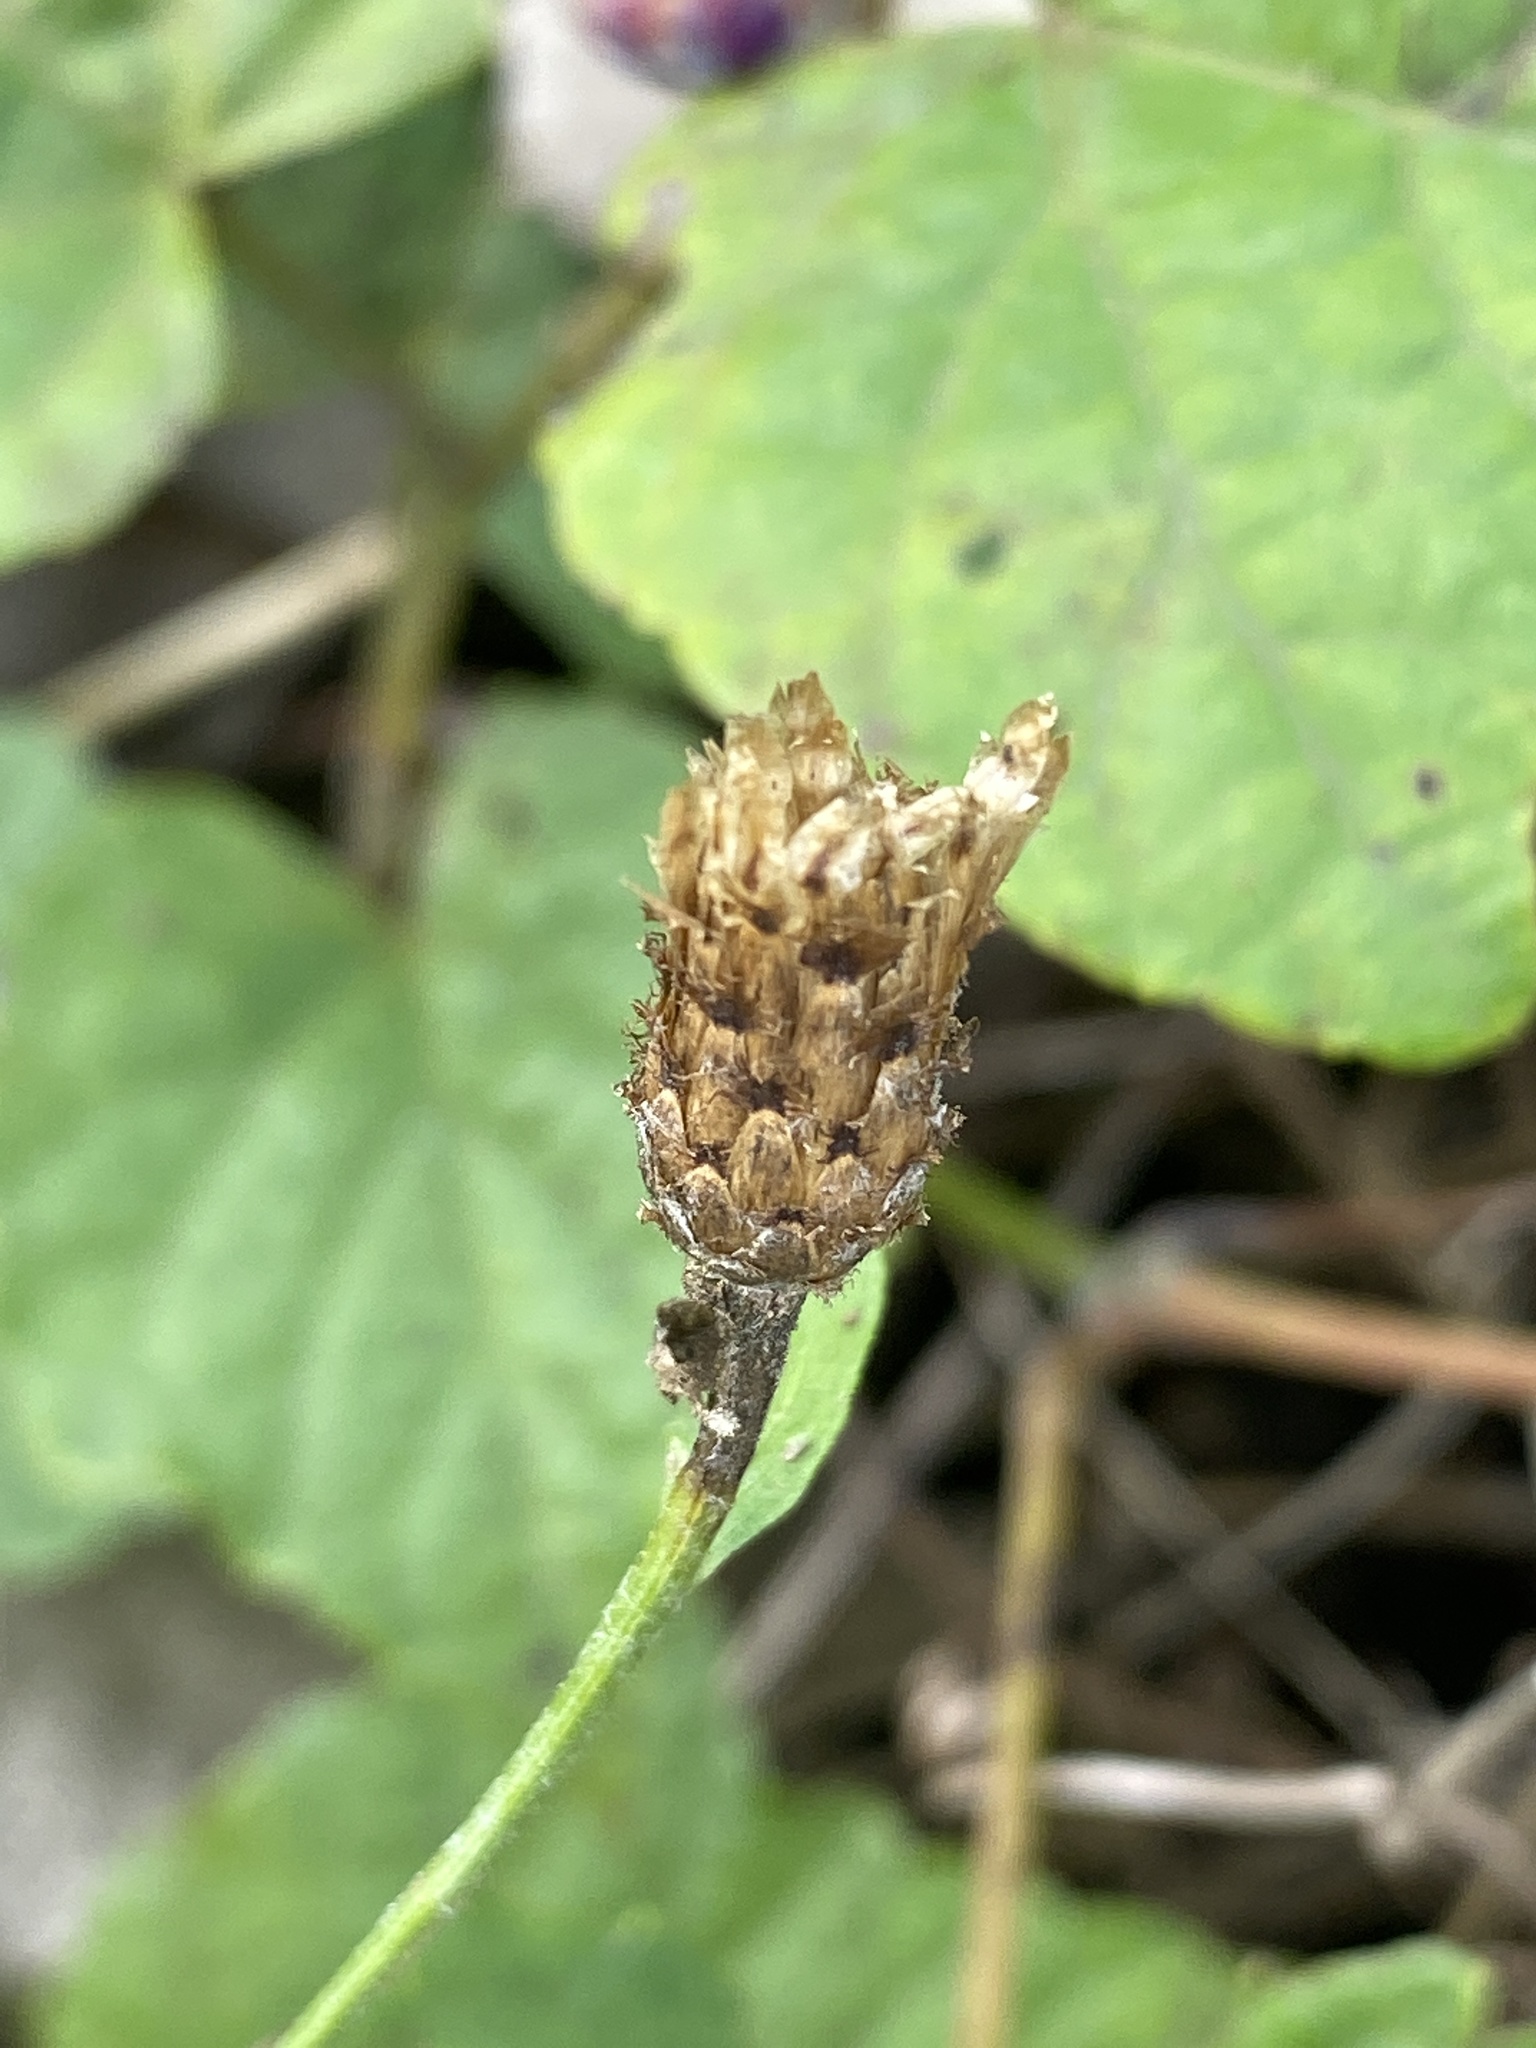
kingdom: Plantae
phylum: Tracheophyta
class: Magnoliopsida
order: Asterales
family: Asteraceae
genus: Centaurea
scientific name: Centaurea nigrescens
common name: Tyrol knapweed
